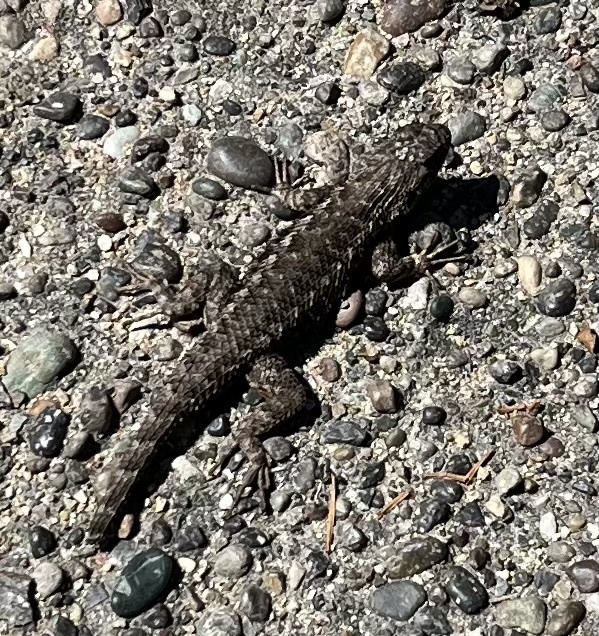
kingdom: Animalia
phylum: Chordata
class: Squamata
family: Phrynosomatidae
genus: Sceloporus
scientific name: Sceloporus occidentalis
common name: Western fence lizard
